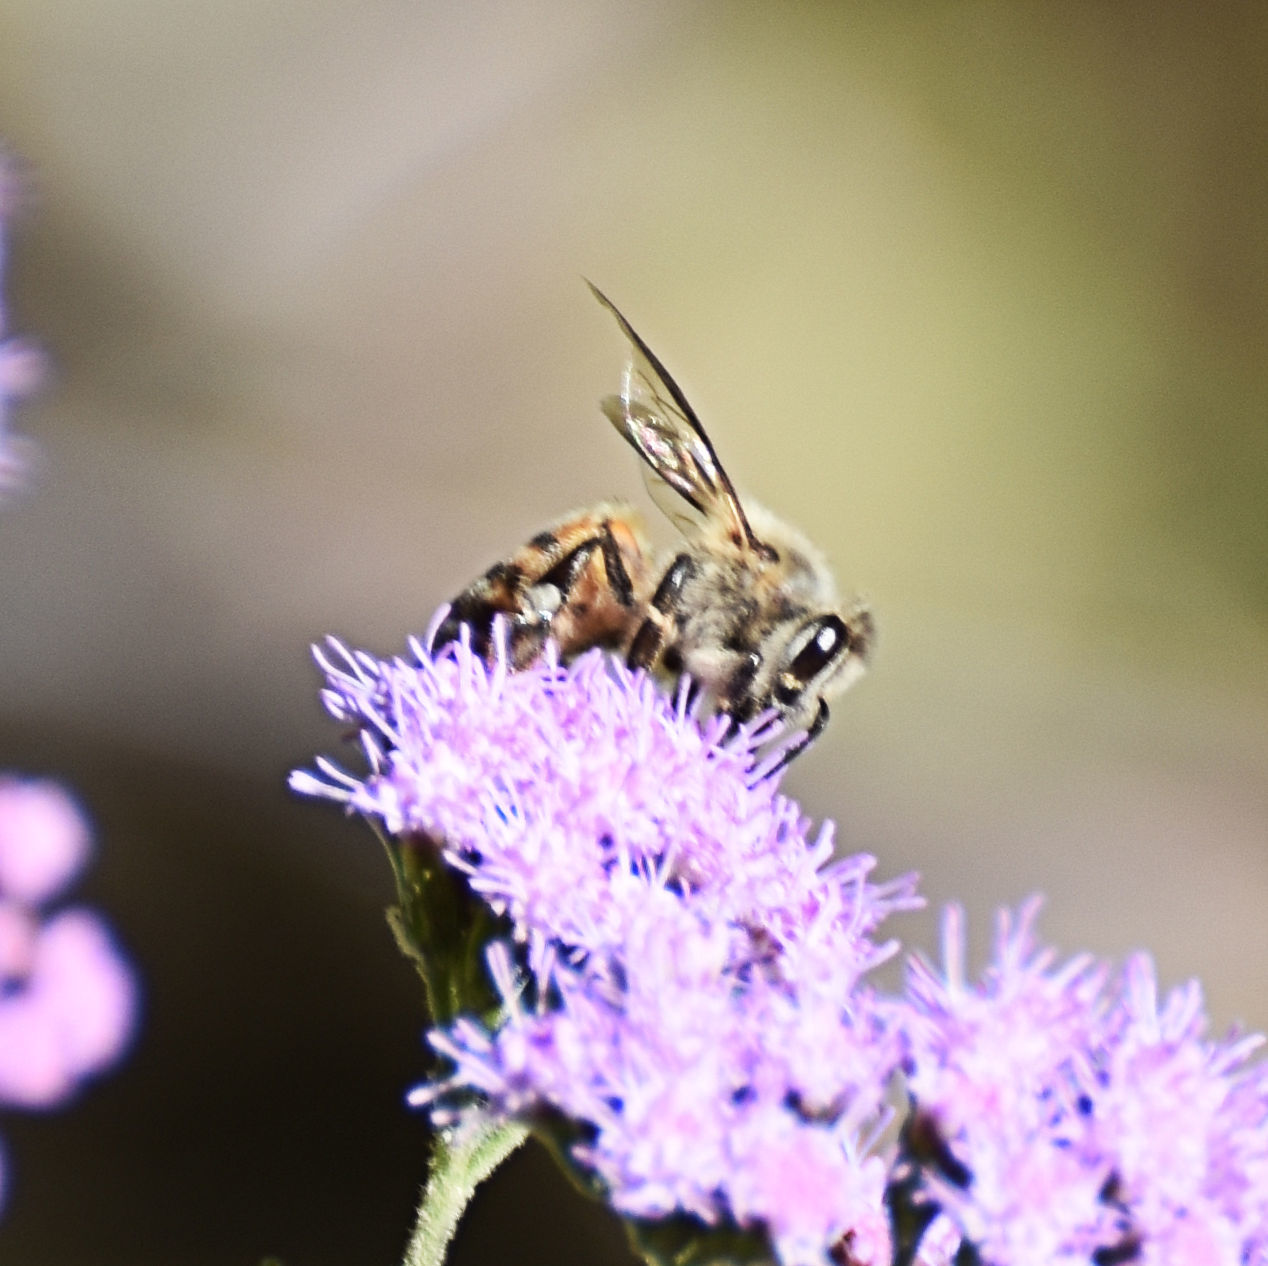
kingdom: Animalia
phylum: Arthropoda
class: Insecta
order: Hymenoptera
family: Apidae
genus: Apis
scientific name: Apis mellifera
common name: Honey bee
